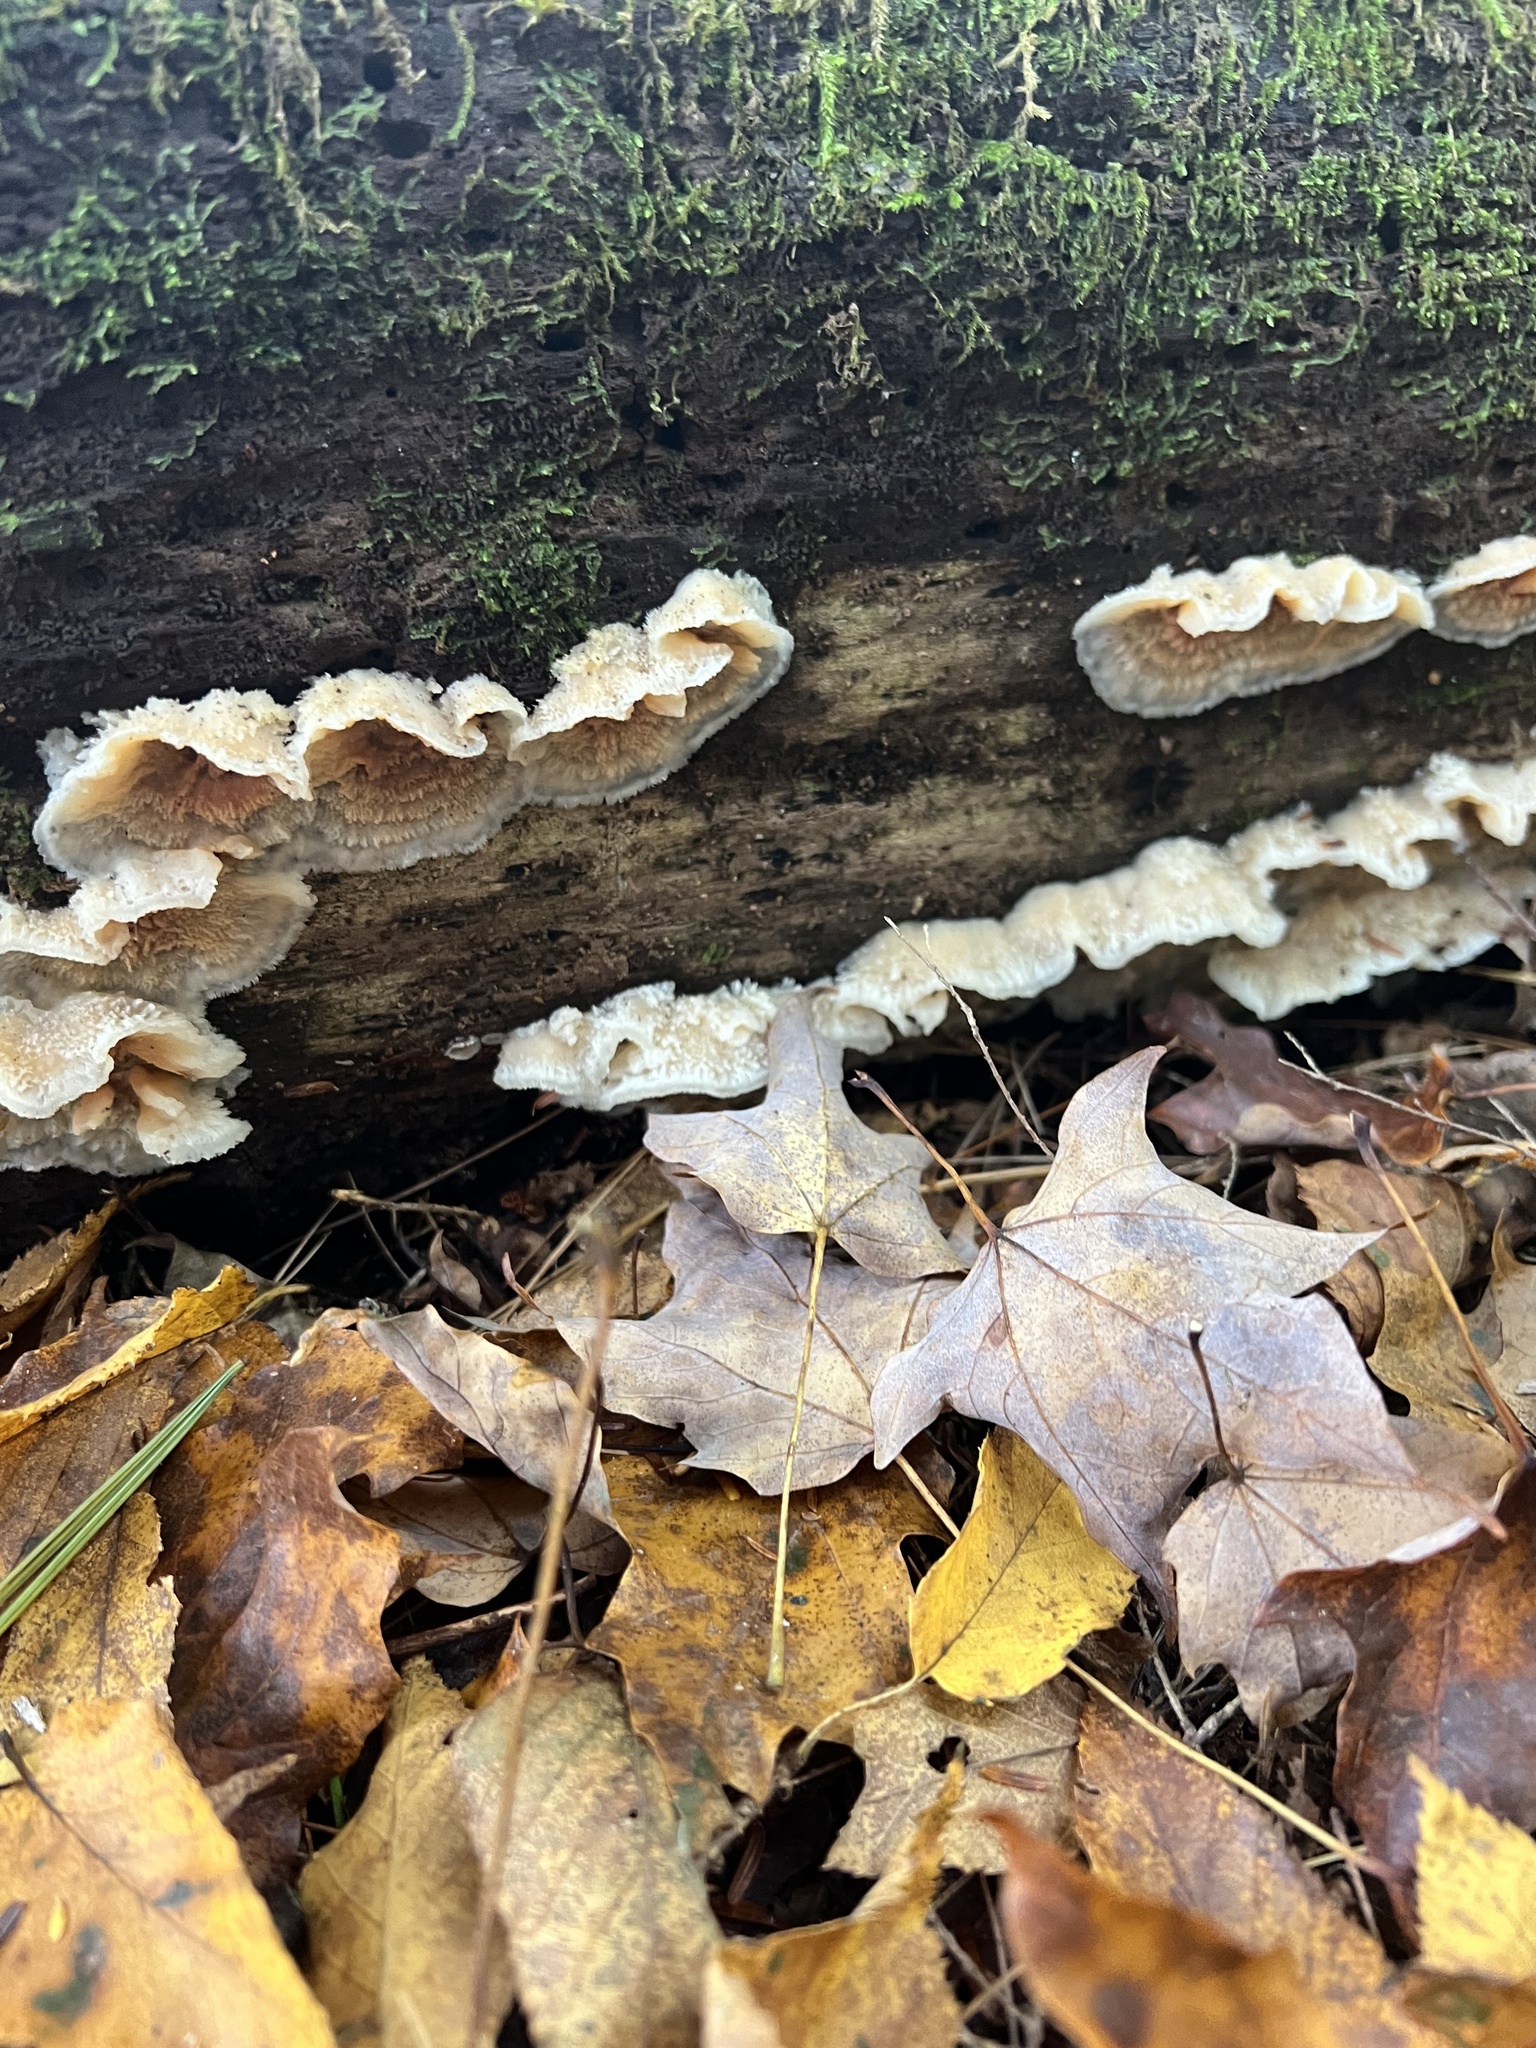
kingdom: Fungi
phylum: Basidiomycota
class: Agaricomycetes
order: Polyporales
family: Meruliaceae
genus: Phlebia
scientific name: Phlebia tremellosa
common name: Jelly rot
